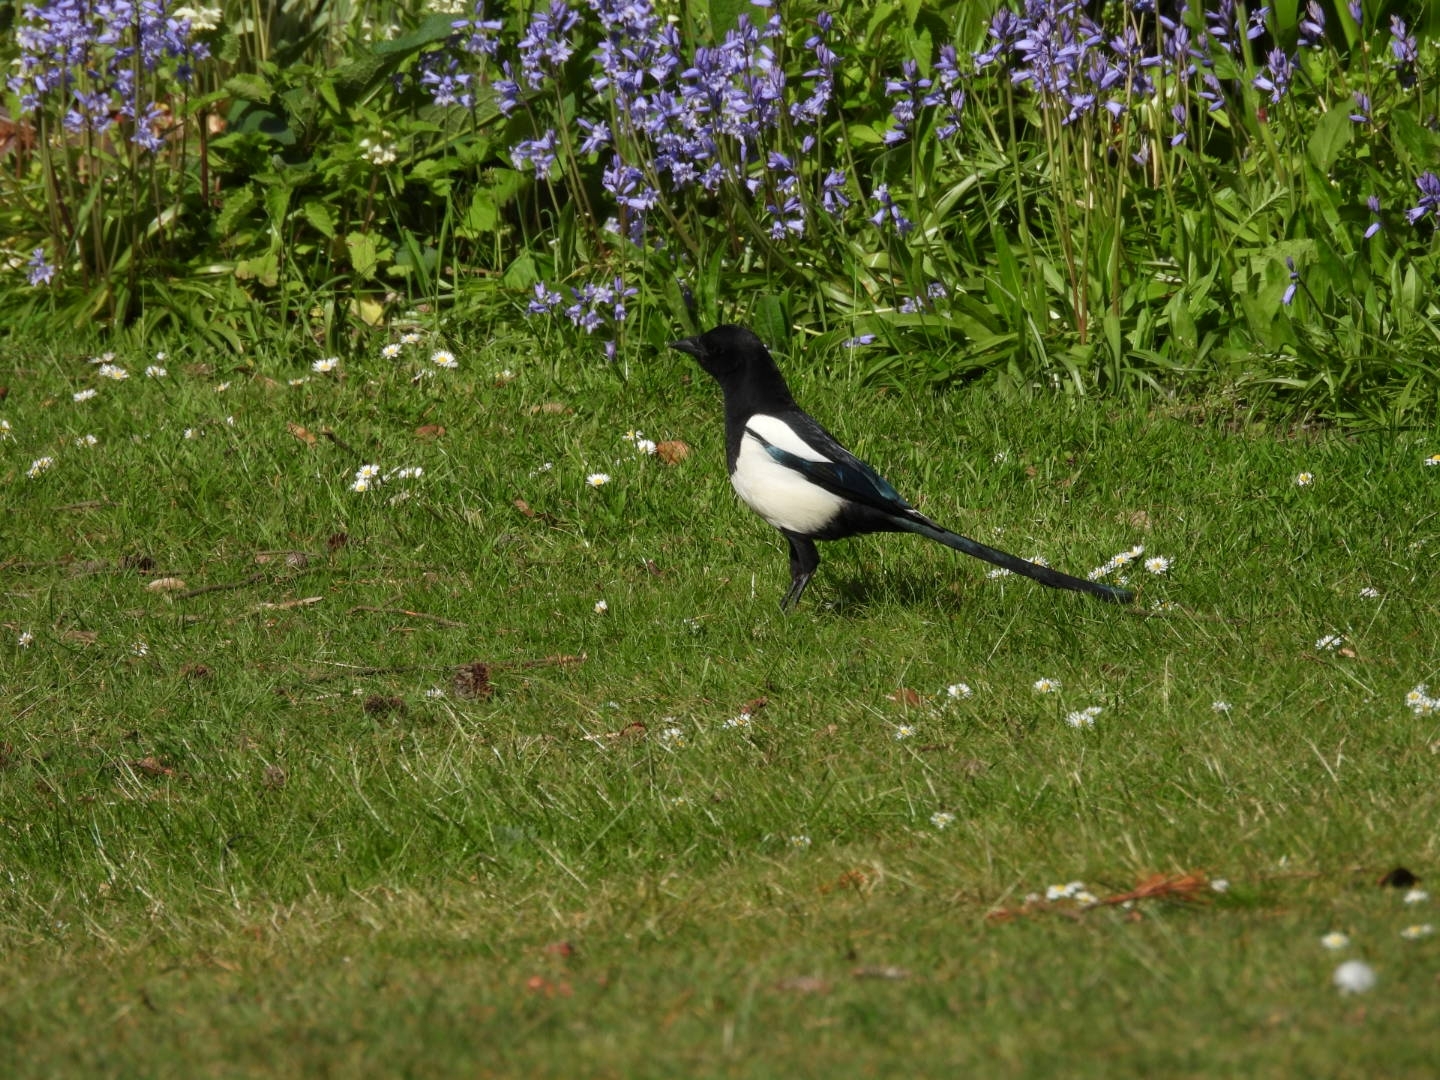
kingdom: Animalia
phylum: Chordata
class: Aves
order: Passeriformes
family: Corvidae
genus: Pica
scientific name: Pica pica
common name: Eurasian magpie
